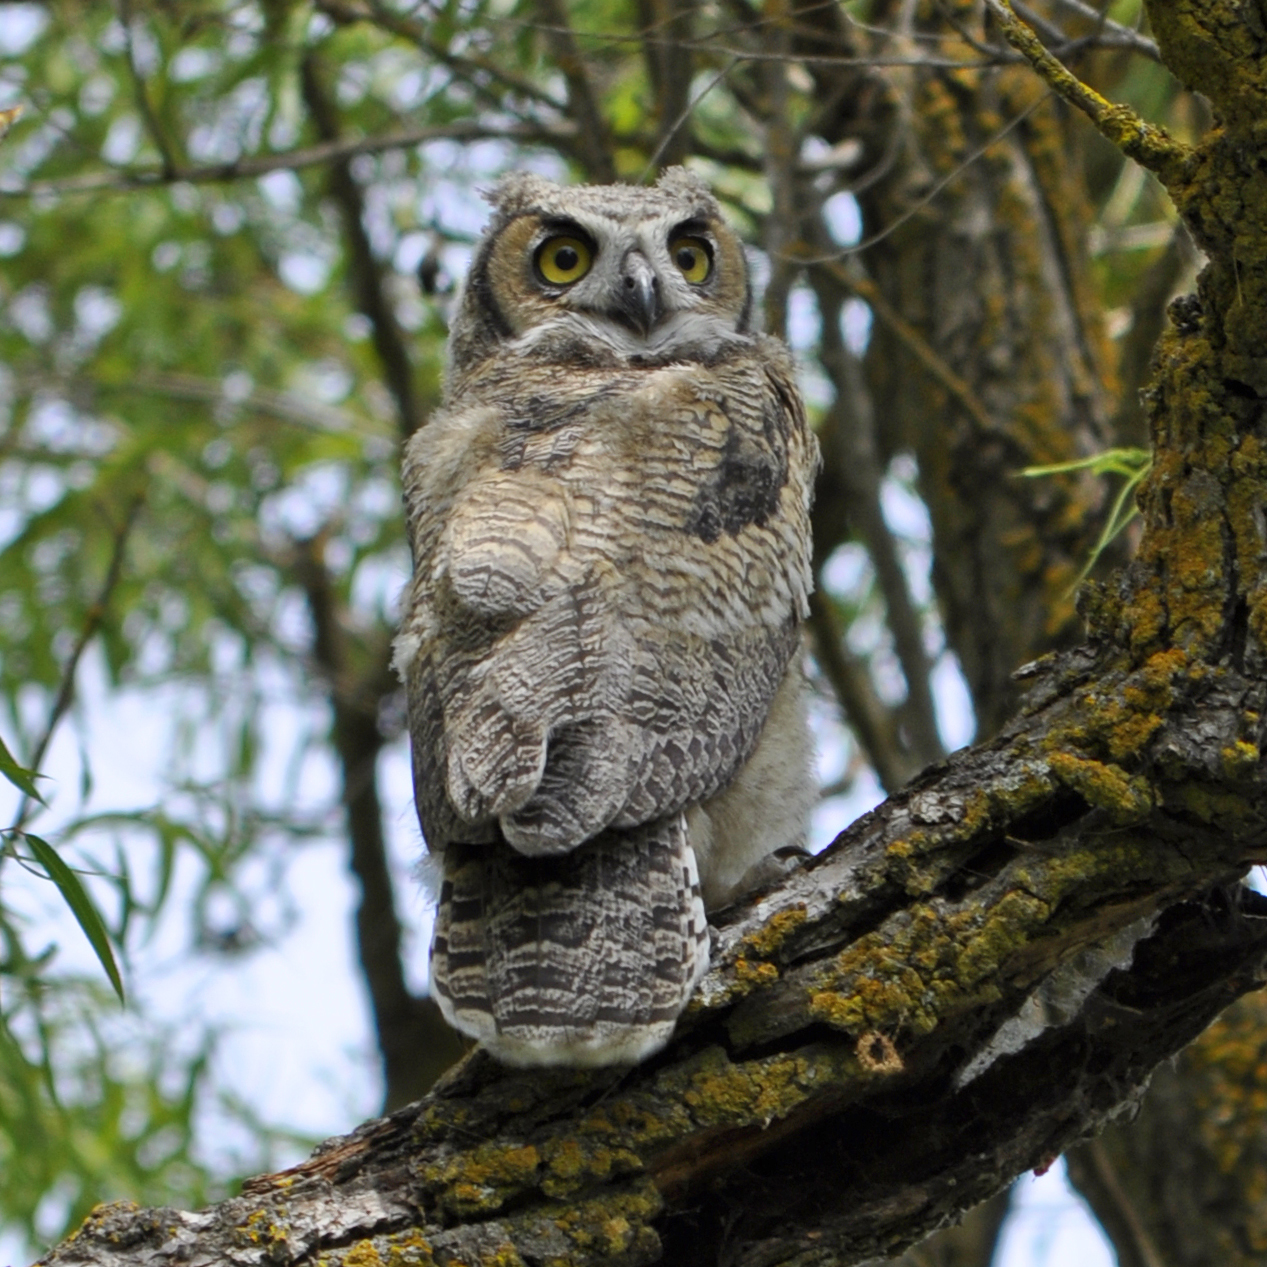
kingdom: Animalia
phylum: Chordata
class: Aves
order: Strigiformes
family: Strigidae
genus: Bubo
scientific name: Bubo virginianus
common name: Great horned owl
